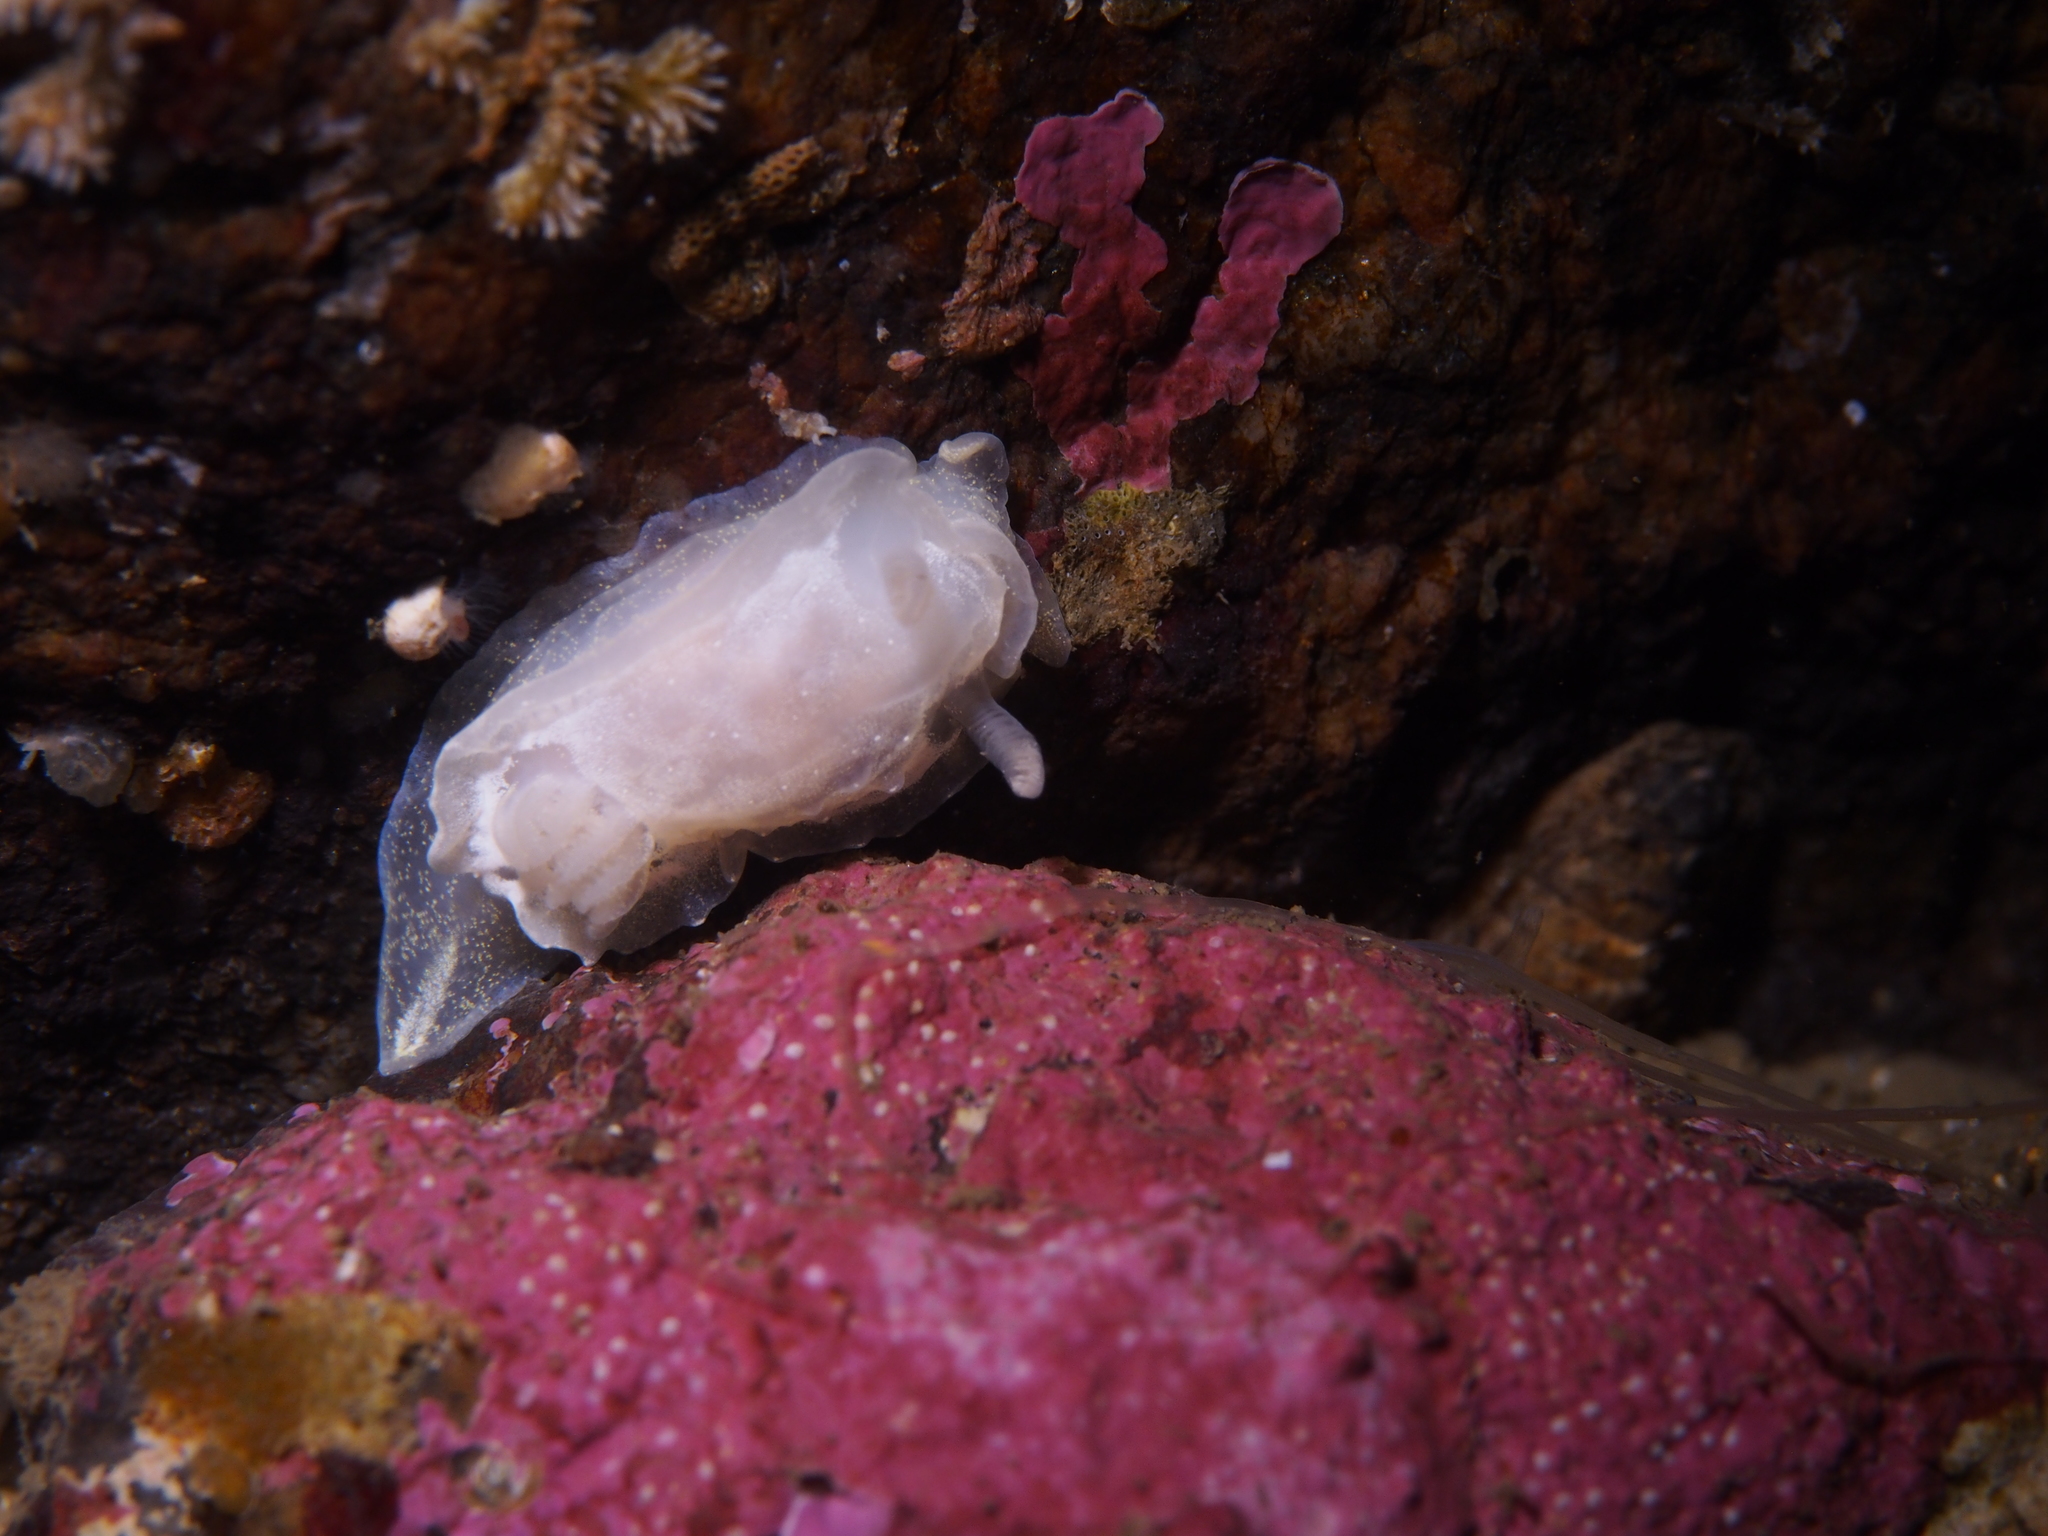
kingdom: Animalia
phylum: Mollusca
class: Gastropoda
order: Nudibranchia
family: Goniodorididae
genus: Okenia
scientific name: Okenia
